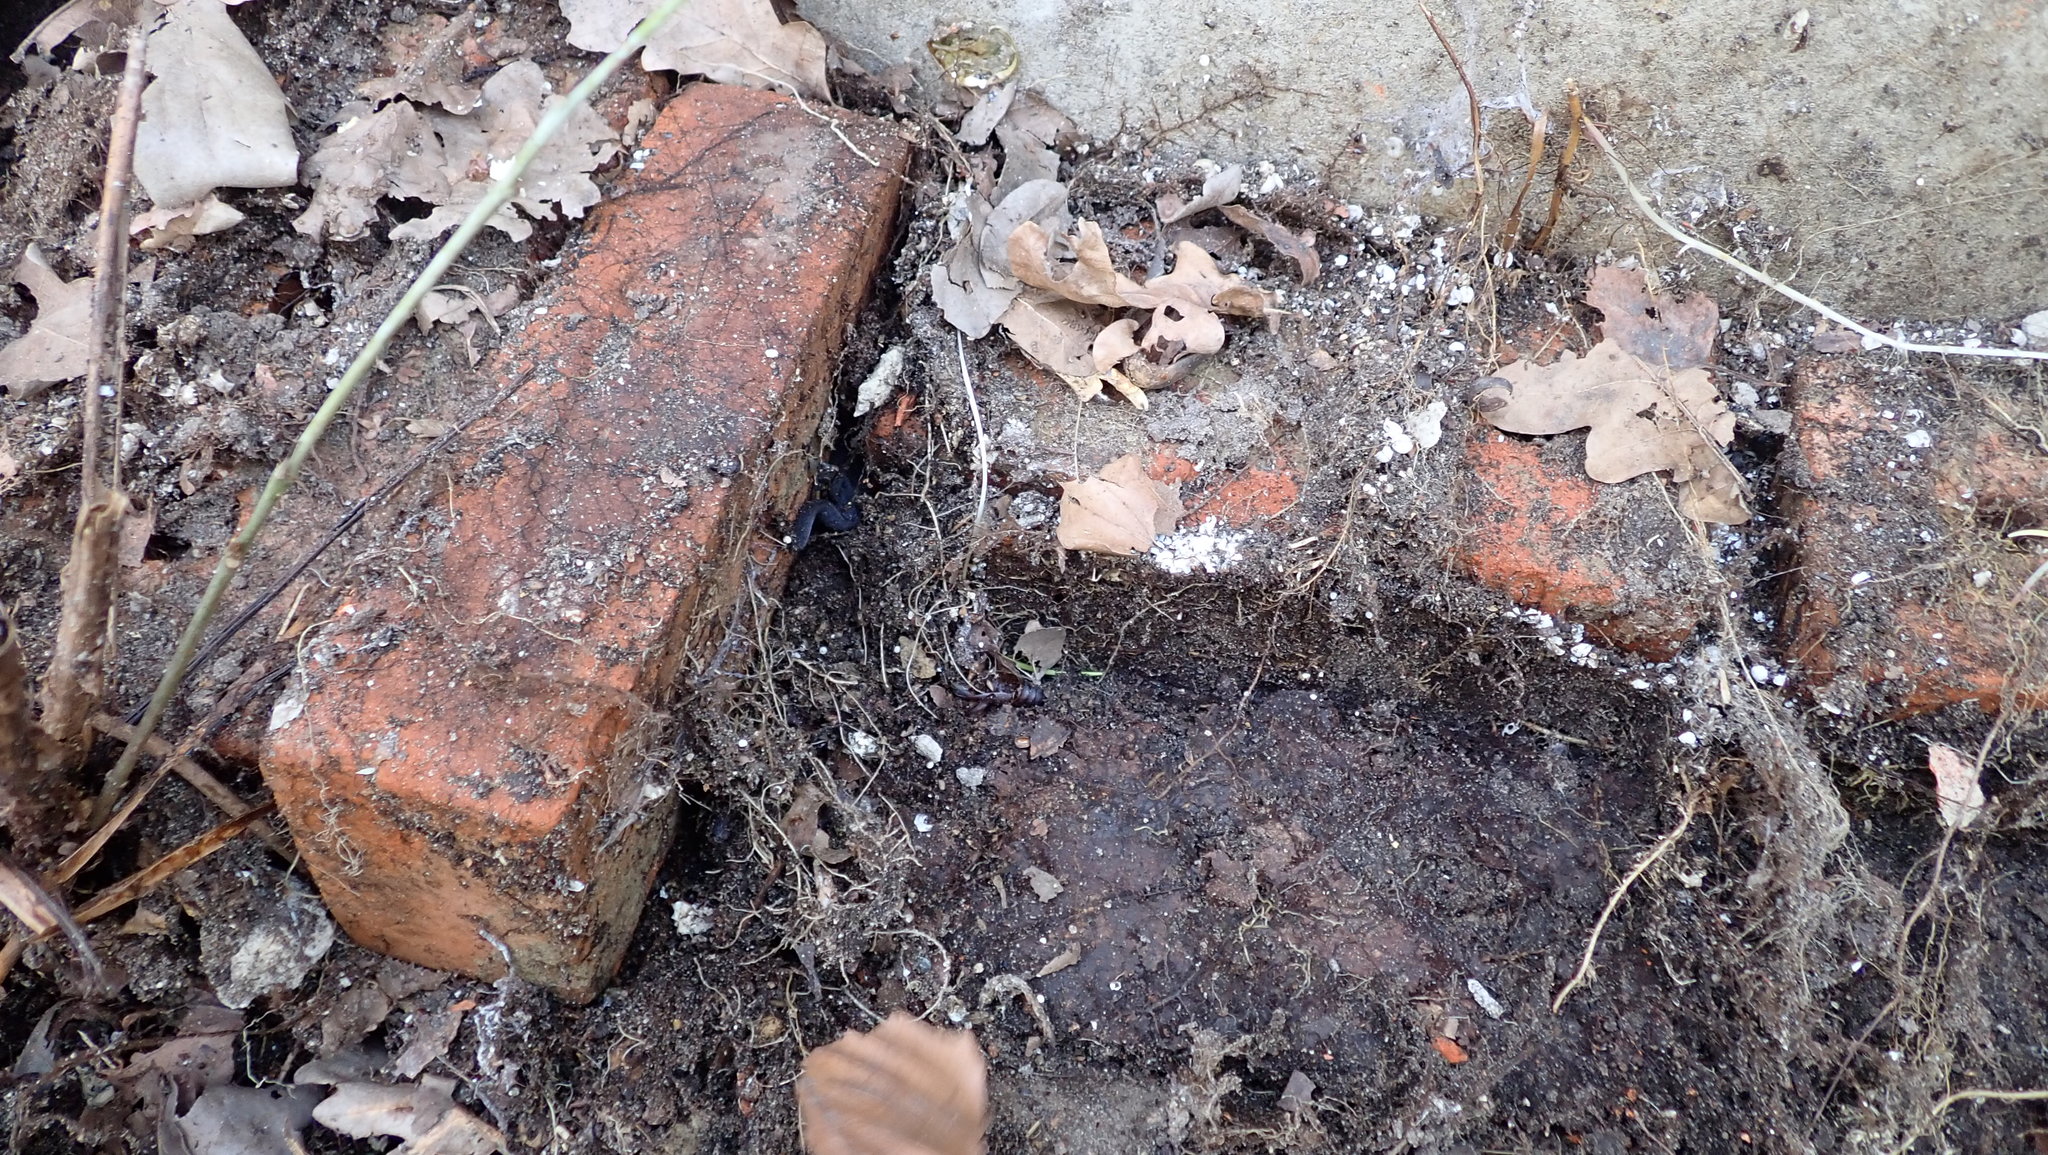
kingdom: Animalia
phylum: Chordata
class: Amphibia
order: Caudata
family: Salamandridae
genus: Ichthyosaura
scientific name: Ichthyosaura alpestris
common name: Alpine newt
